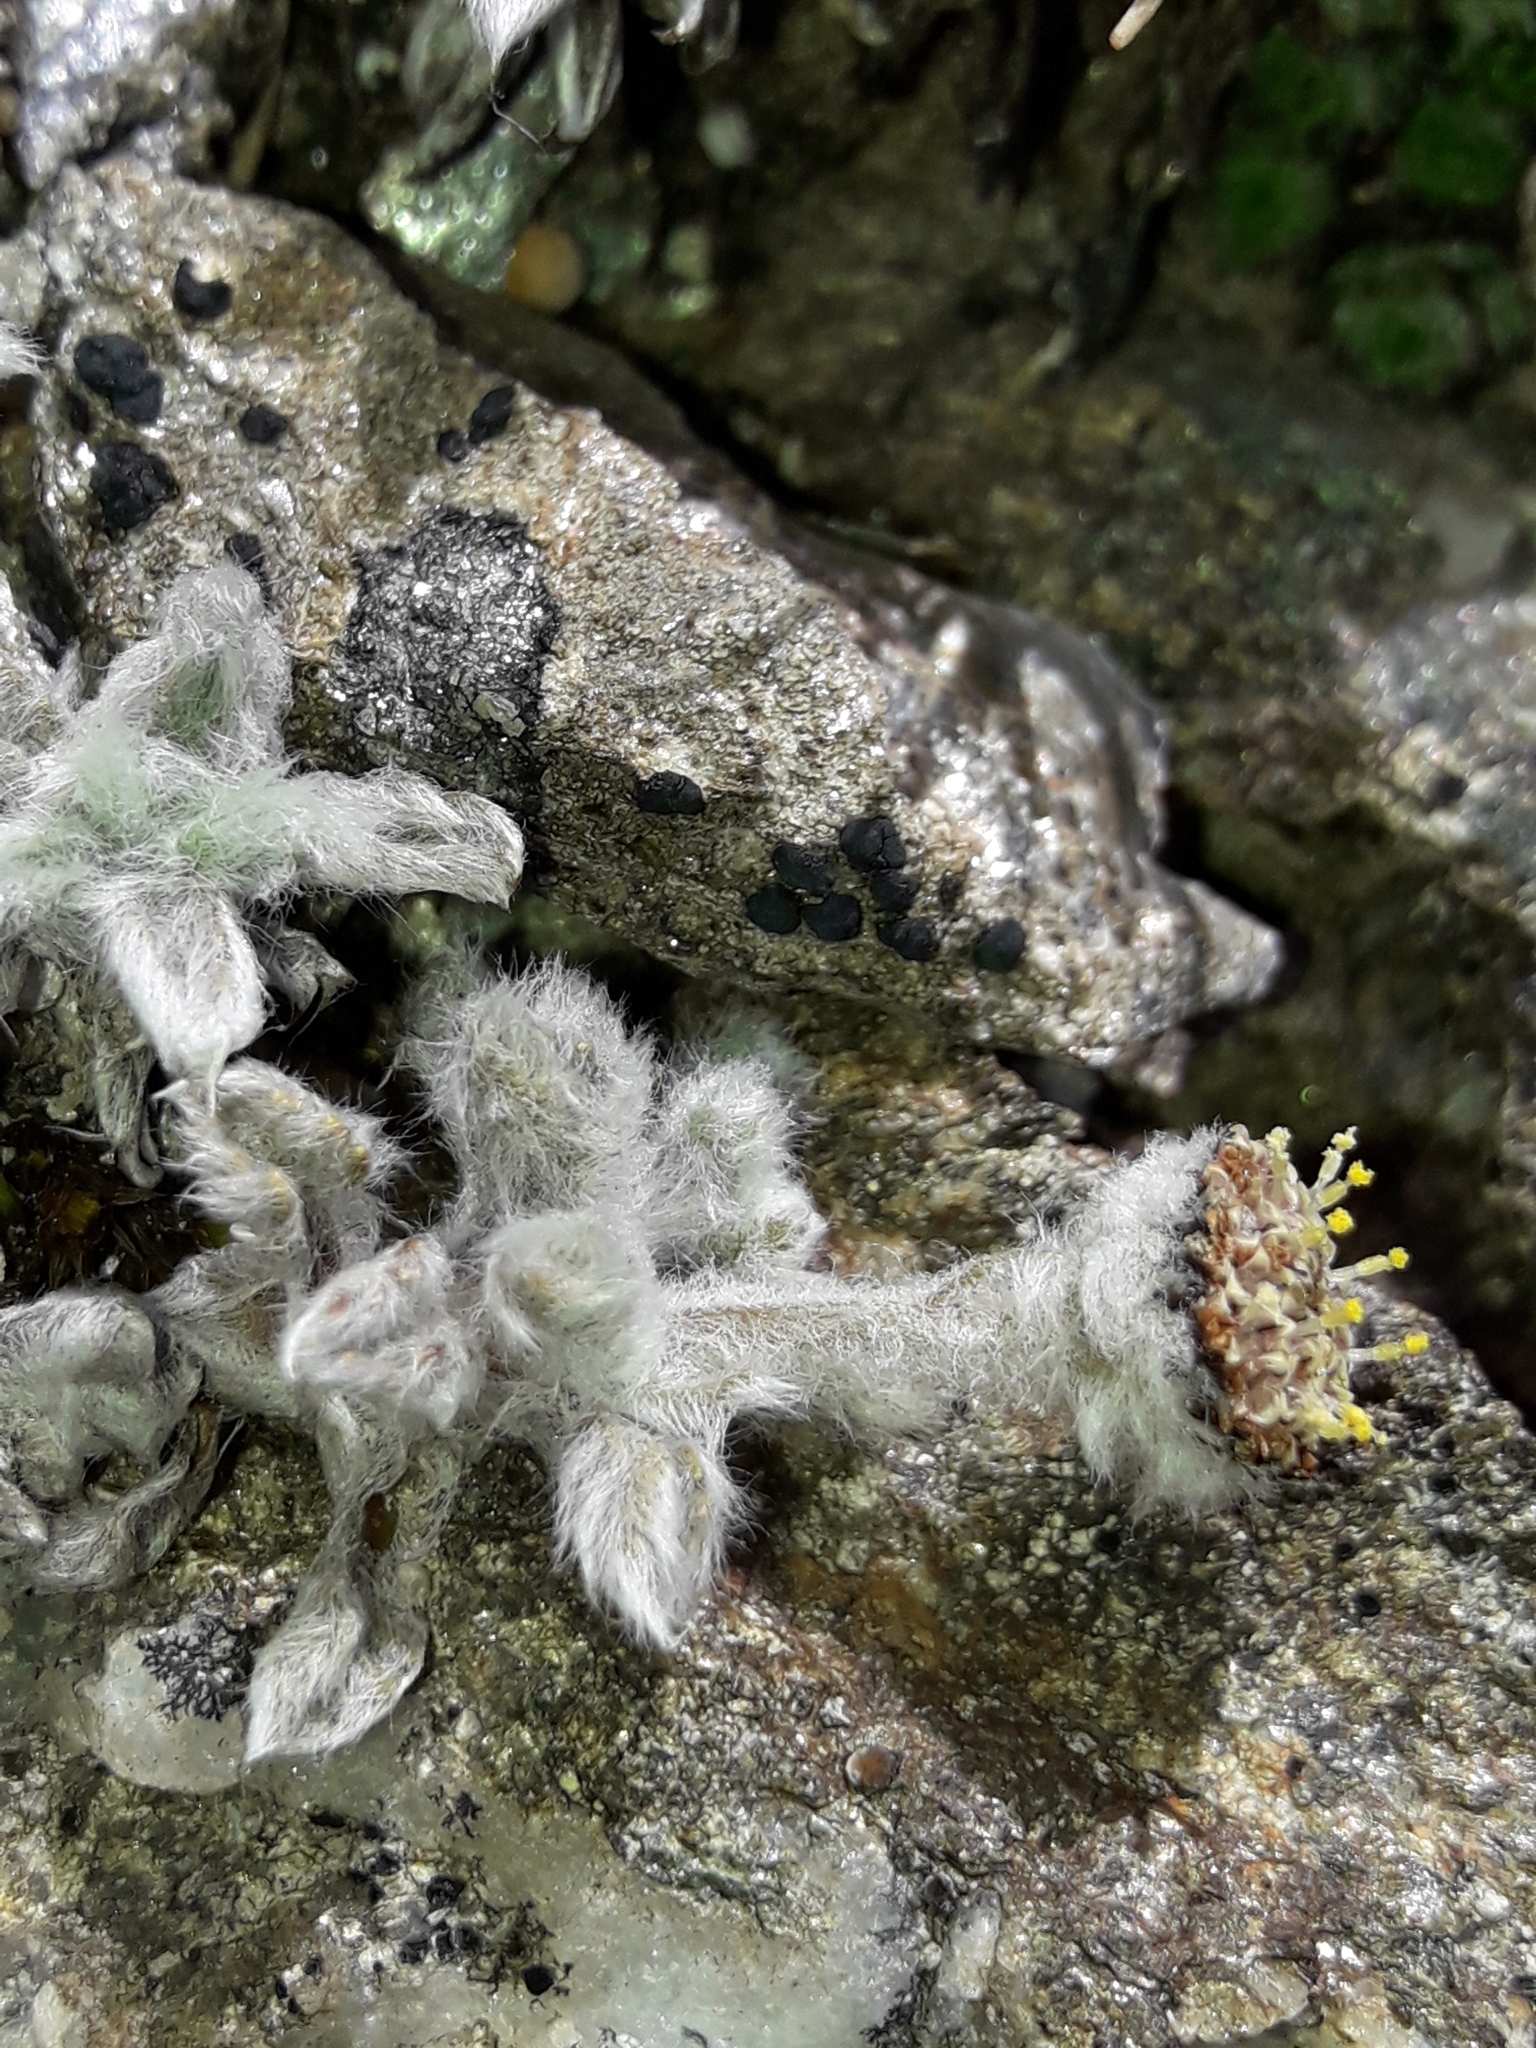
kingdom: Plantae
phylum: Tracheophyta
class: Magnoliopsida
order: Asterales
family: Asteraceae
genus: Leptinella
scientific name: Leptinella albida
